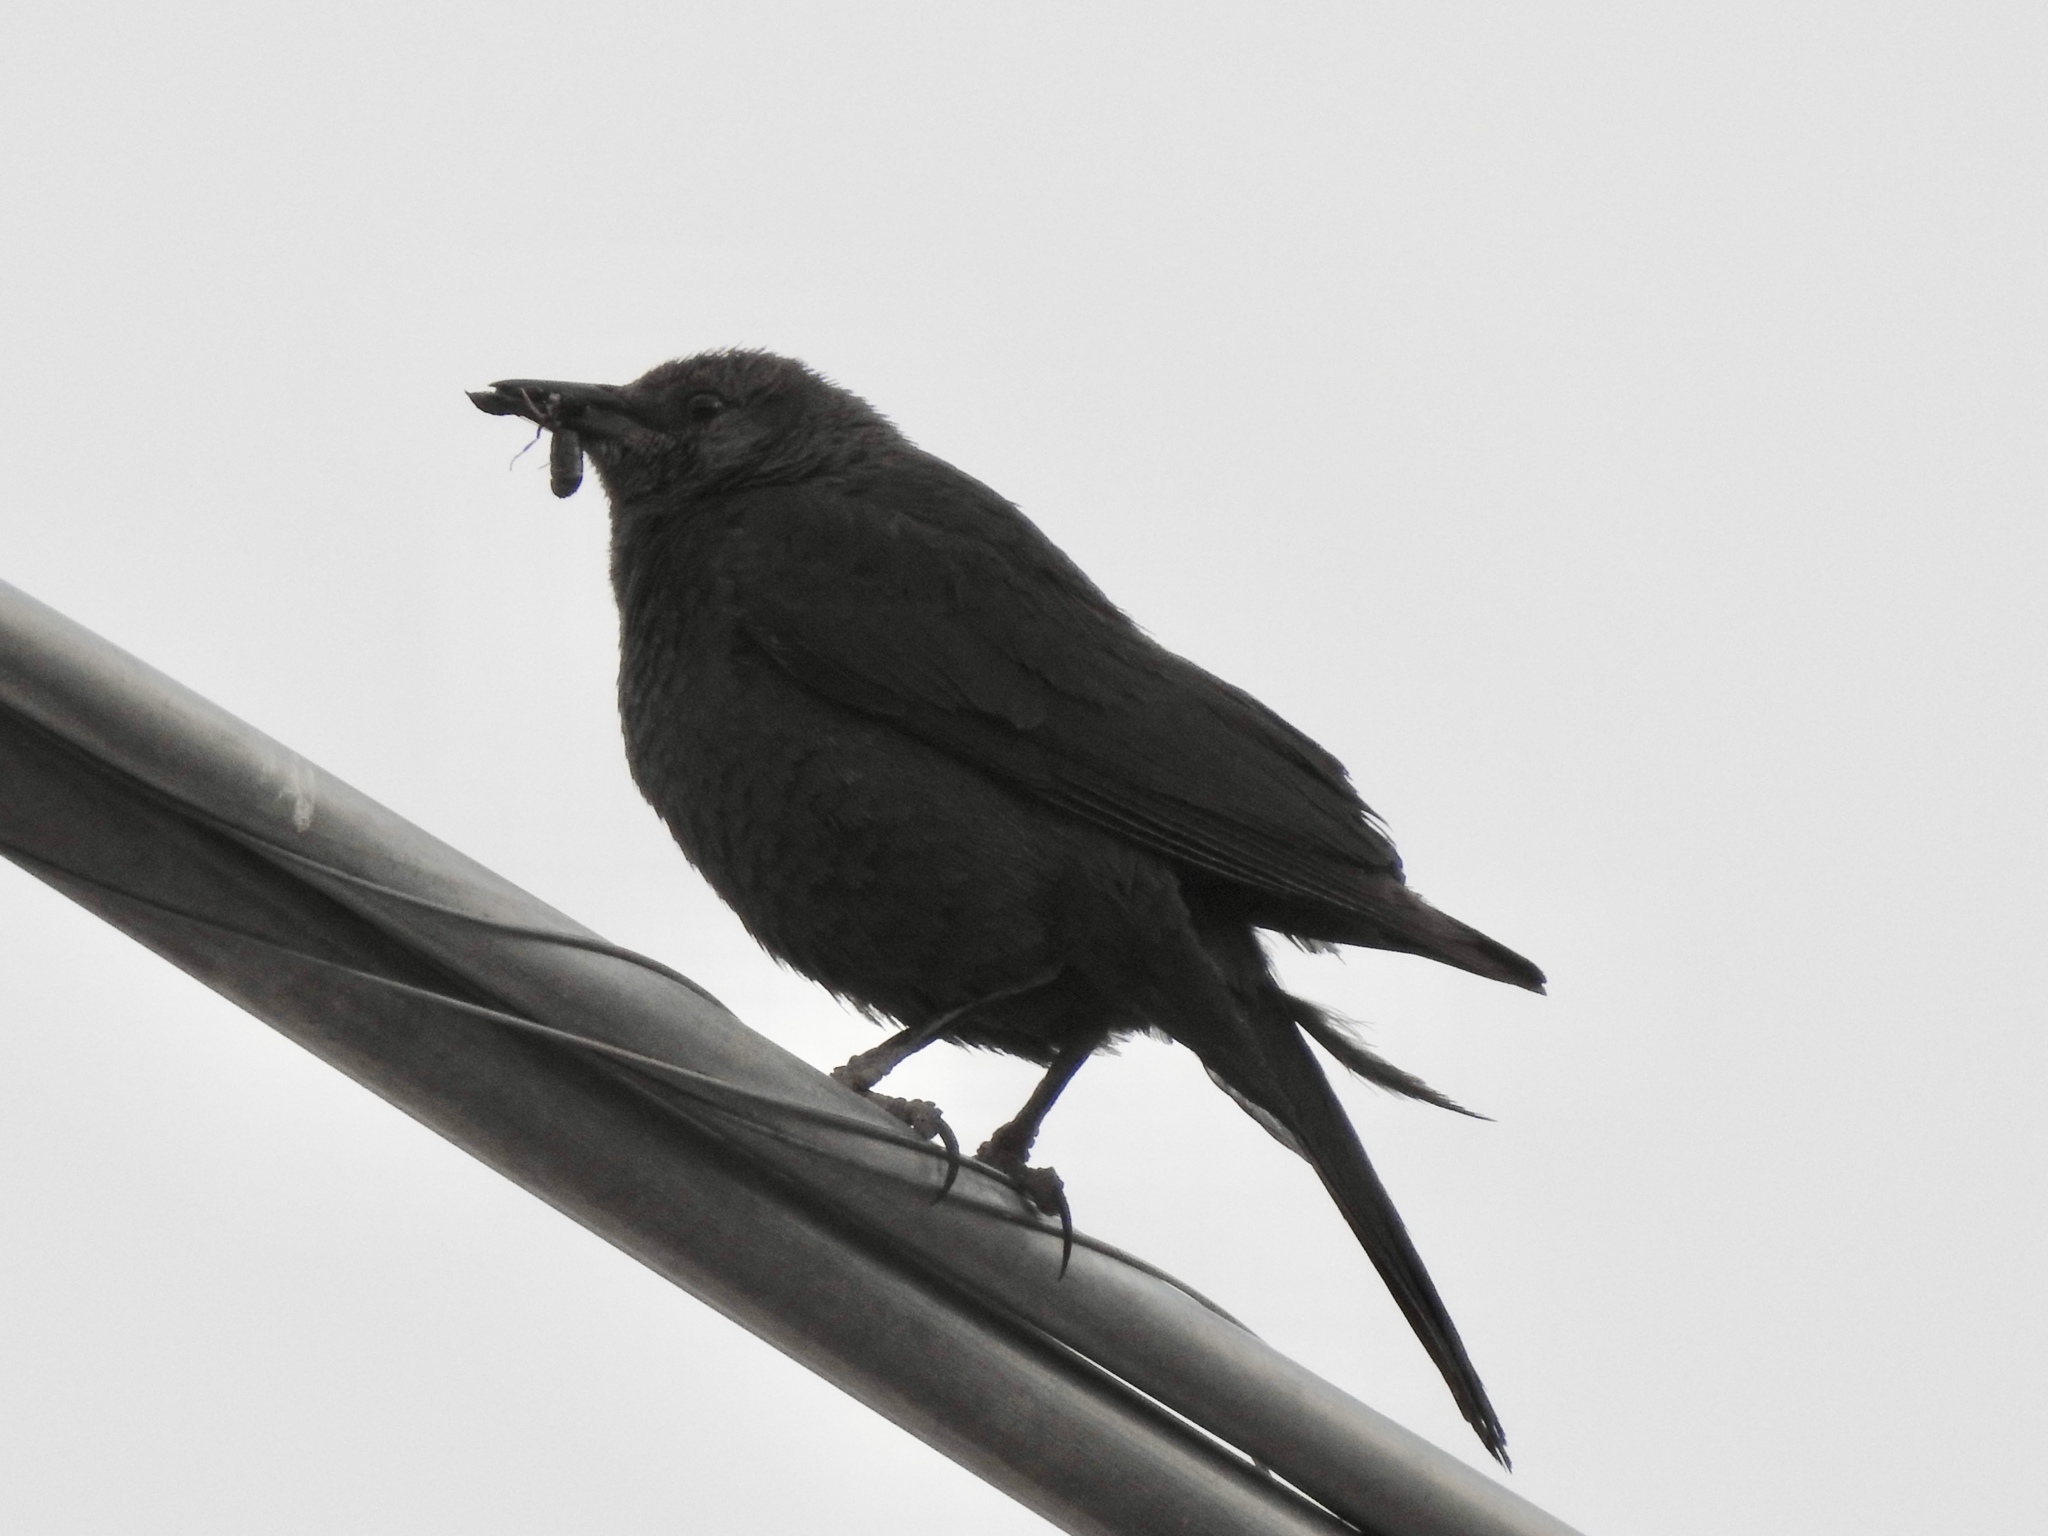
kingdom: Animalia
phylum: Chordata
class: Aves
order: Passeriformes
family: Icteridae
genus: Euphagus
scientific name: Euphagus cyanocephalus
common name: Brewer's blackbird
